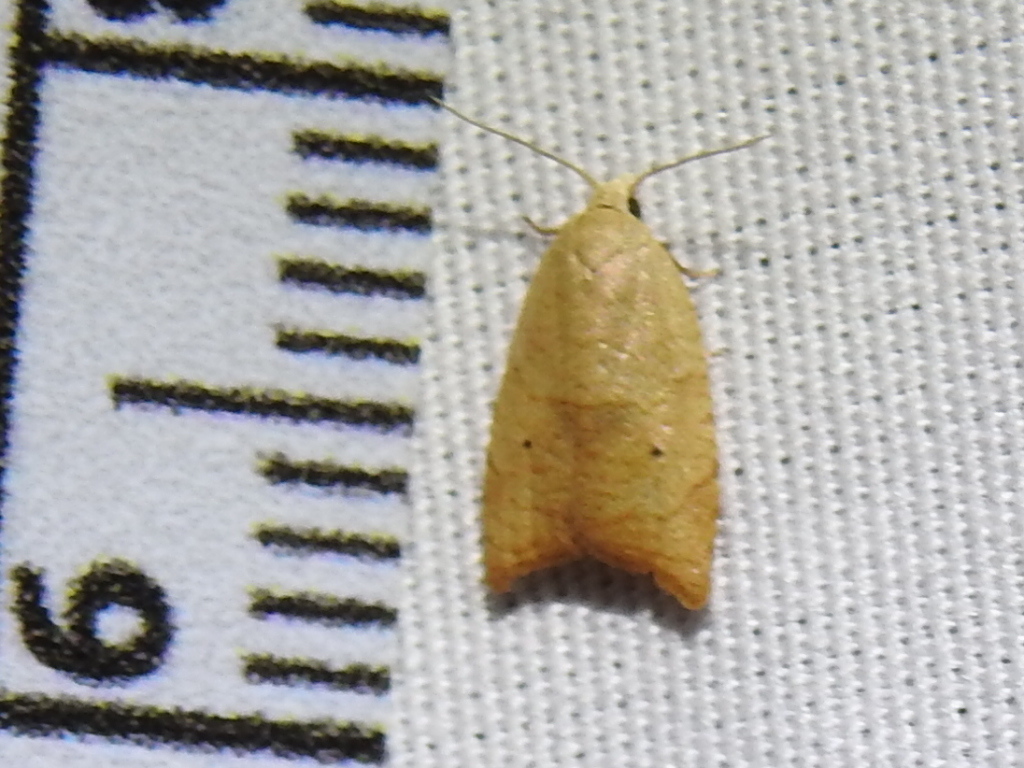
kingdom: Animalia
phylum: Arthropoda
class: Insecta
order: Lepidoptera
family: Tortricidae
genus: Coelostathma
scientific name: Coelostathma discopunctana
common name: Batman moth
